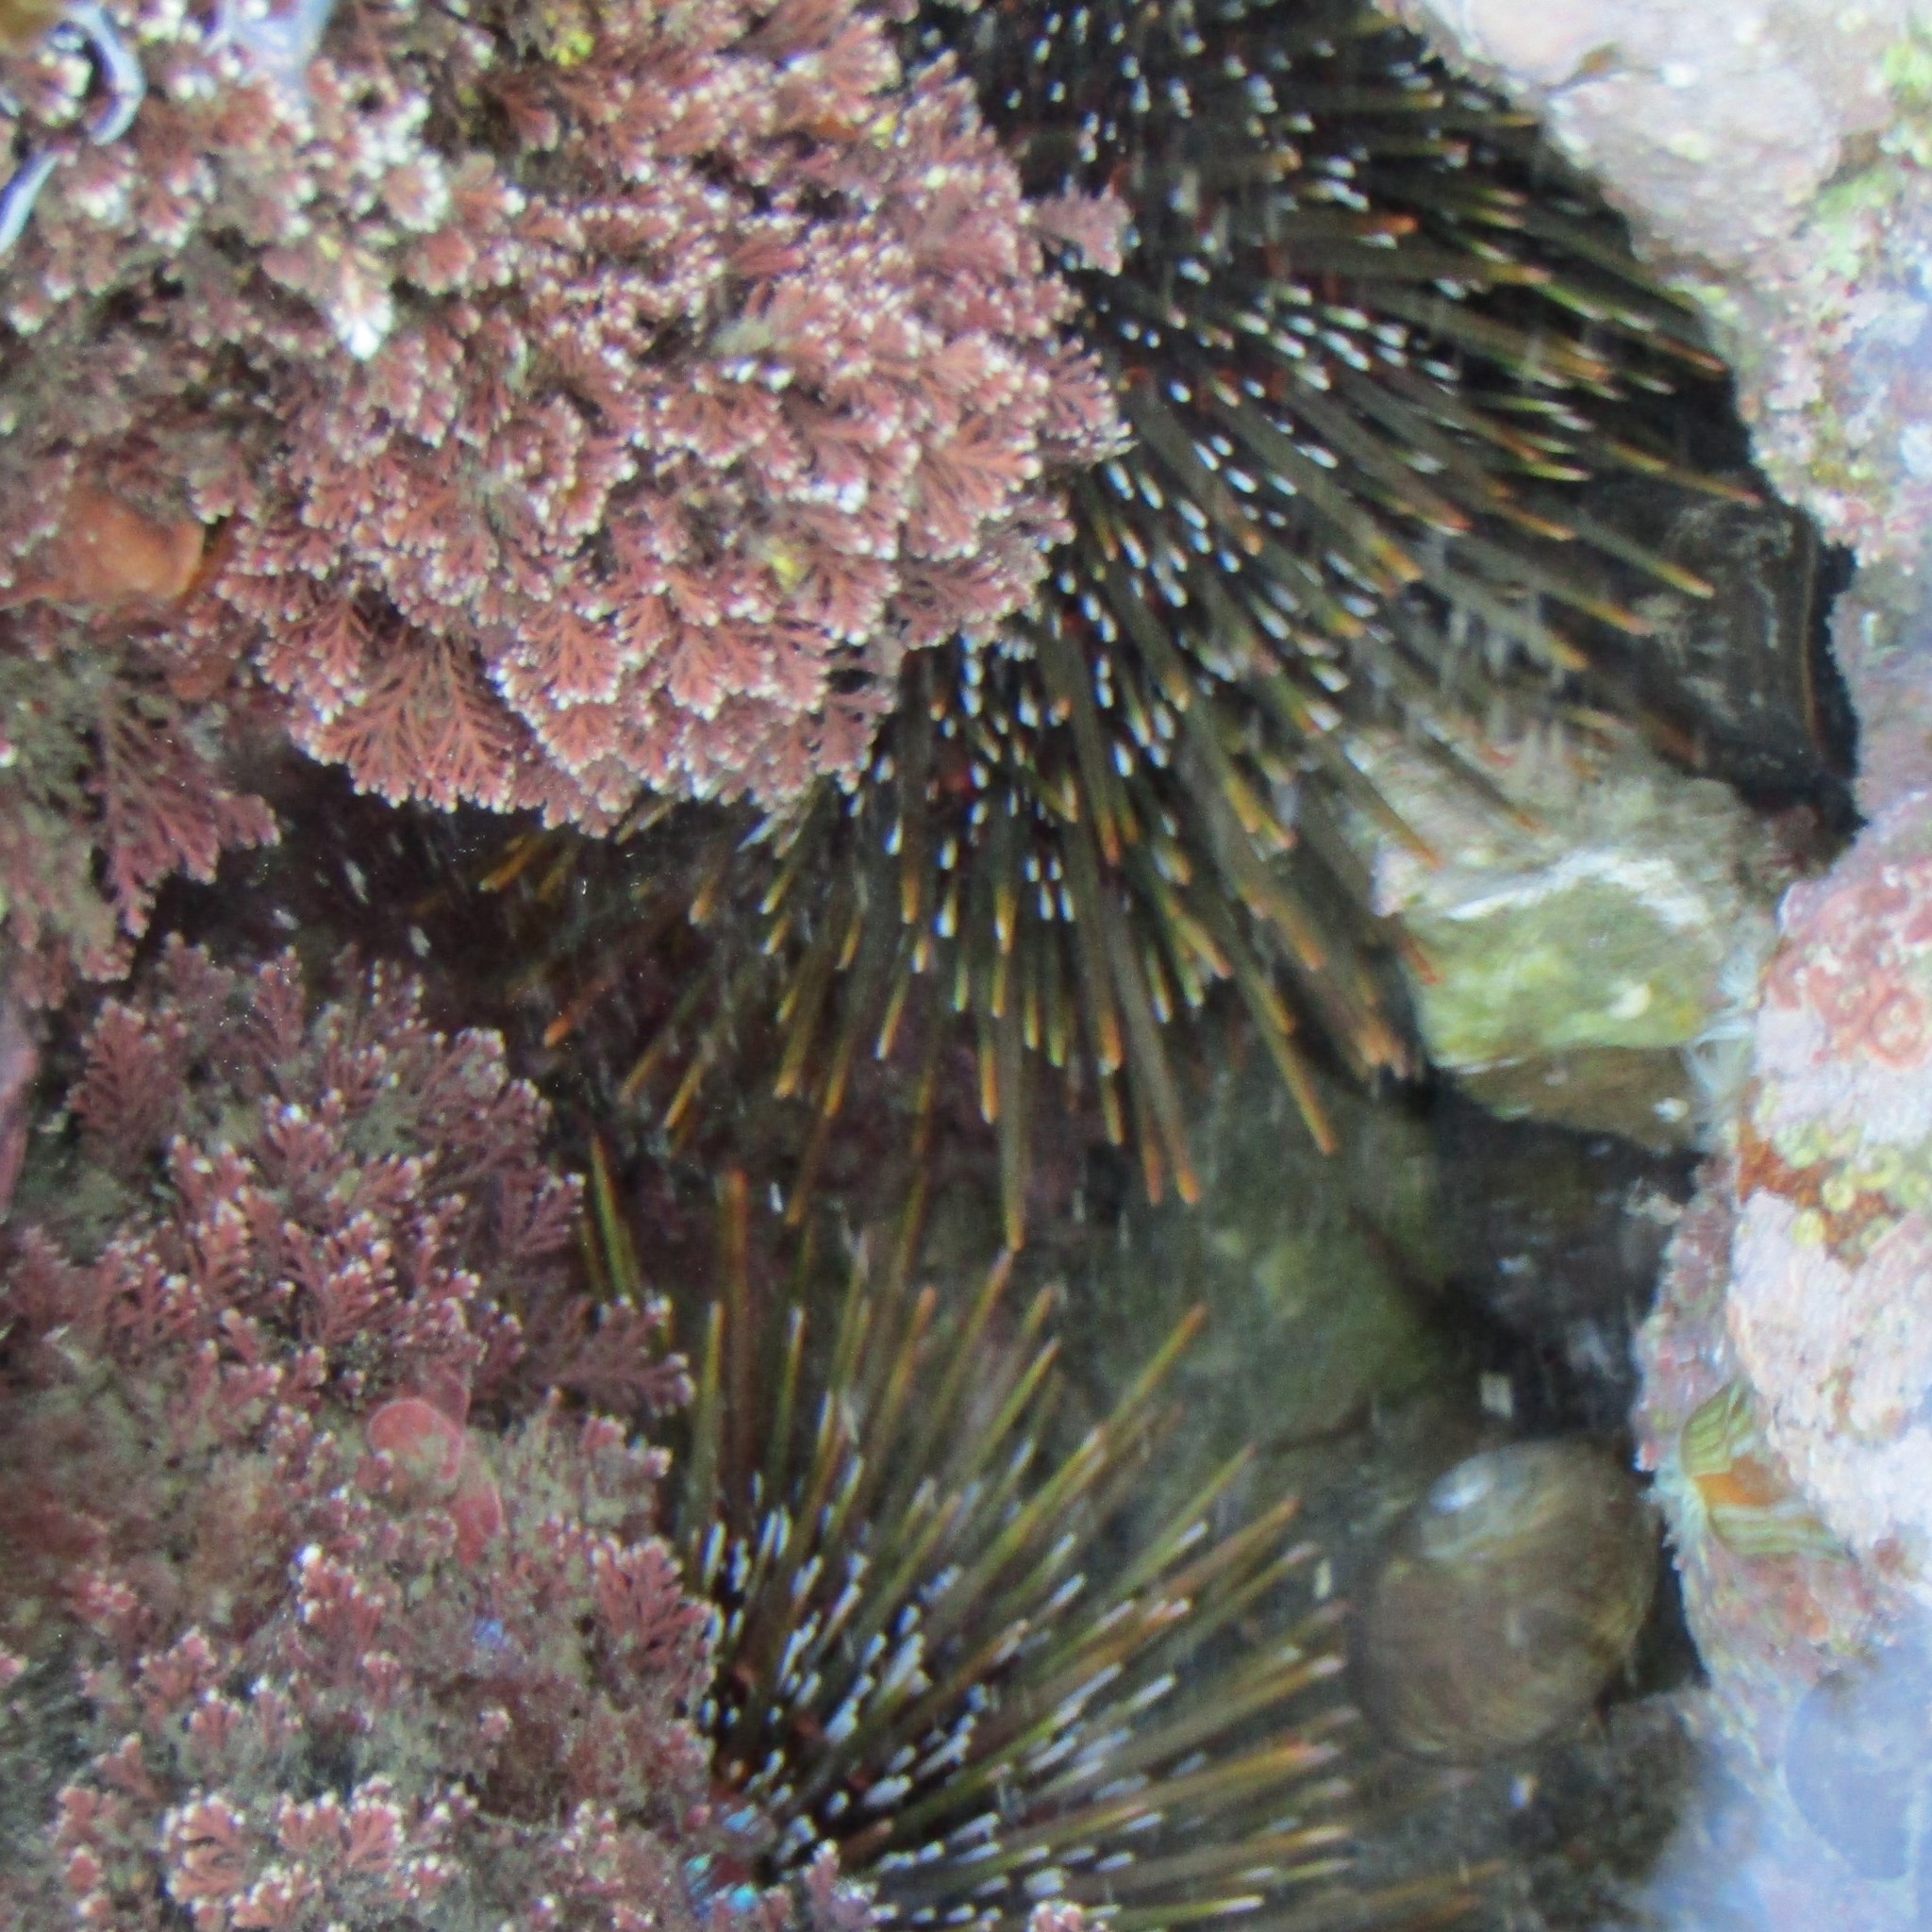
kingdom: Animalia
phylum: Echinodermata
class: Echinoidea
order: Camarodonta
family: Echinometridae
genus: Evechinus
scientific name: Evechinus chloroticus
